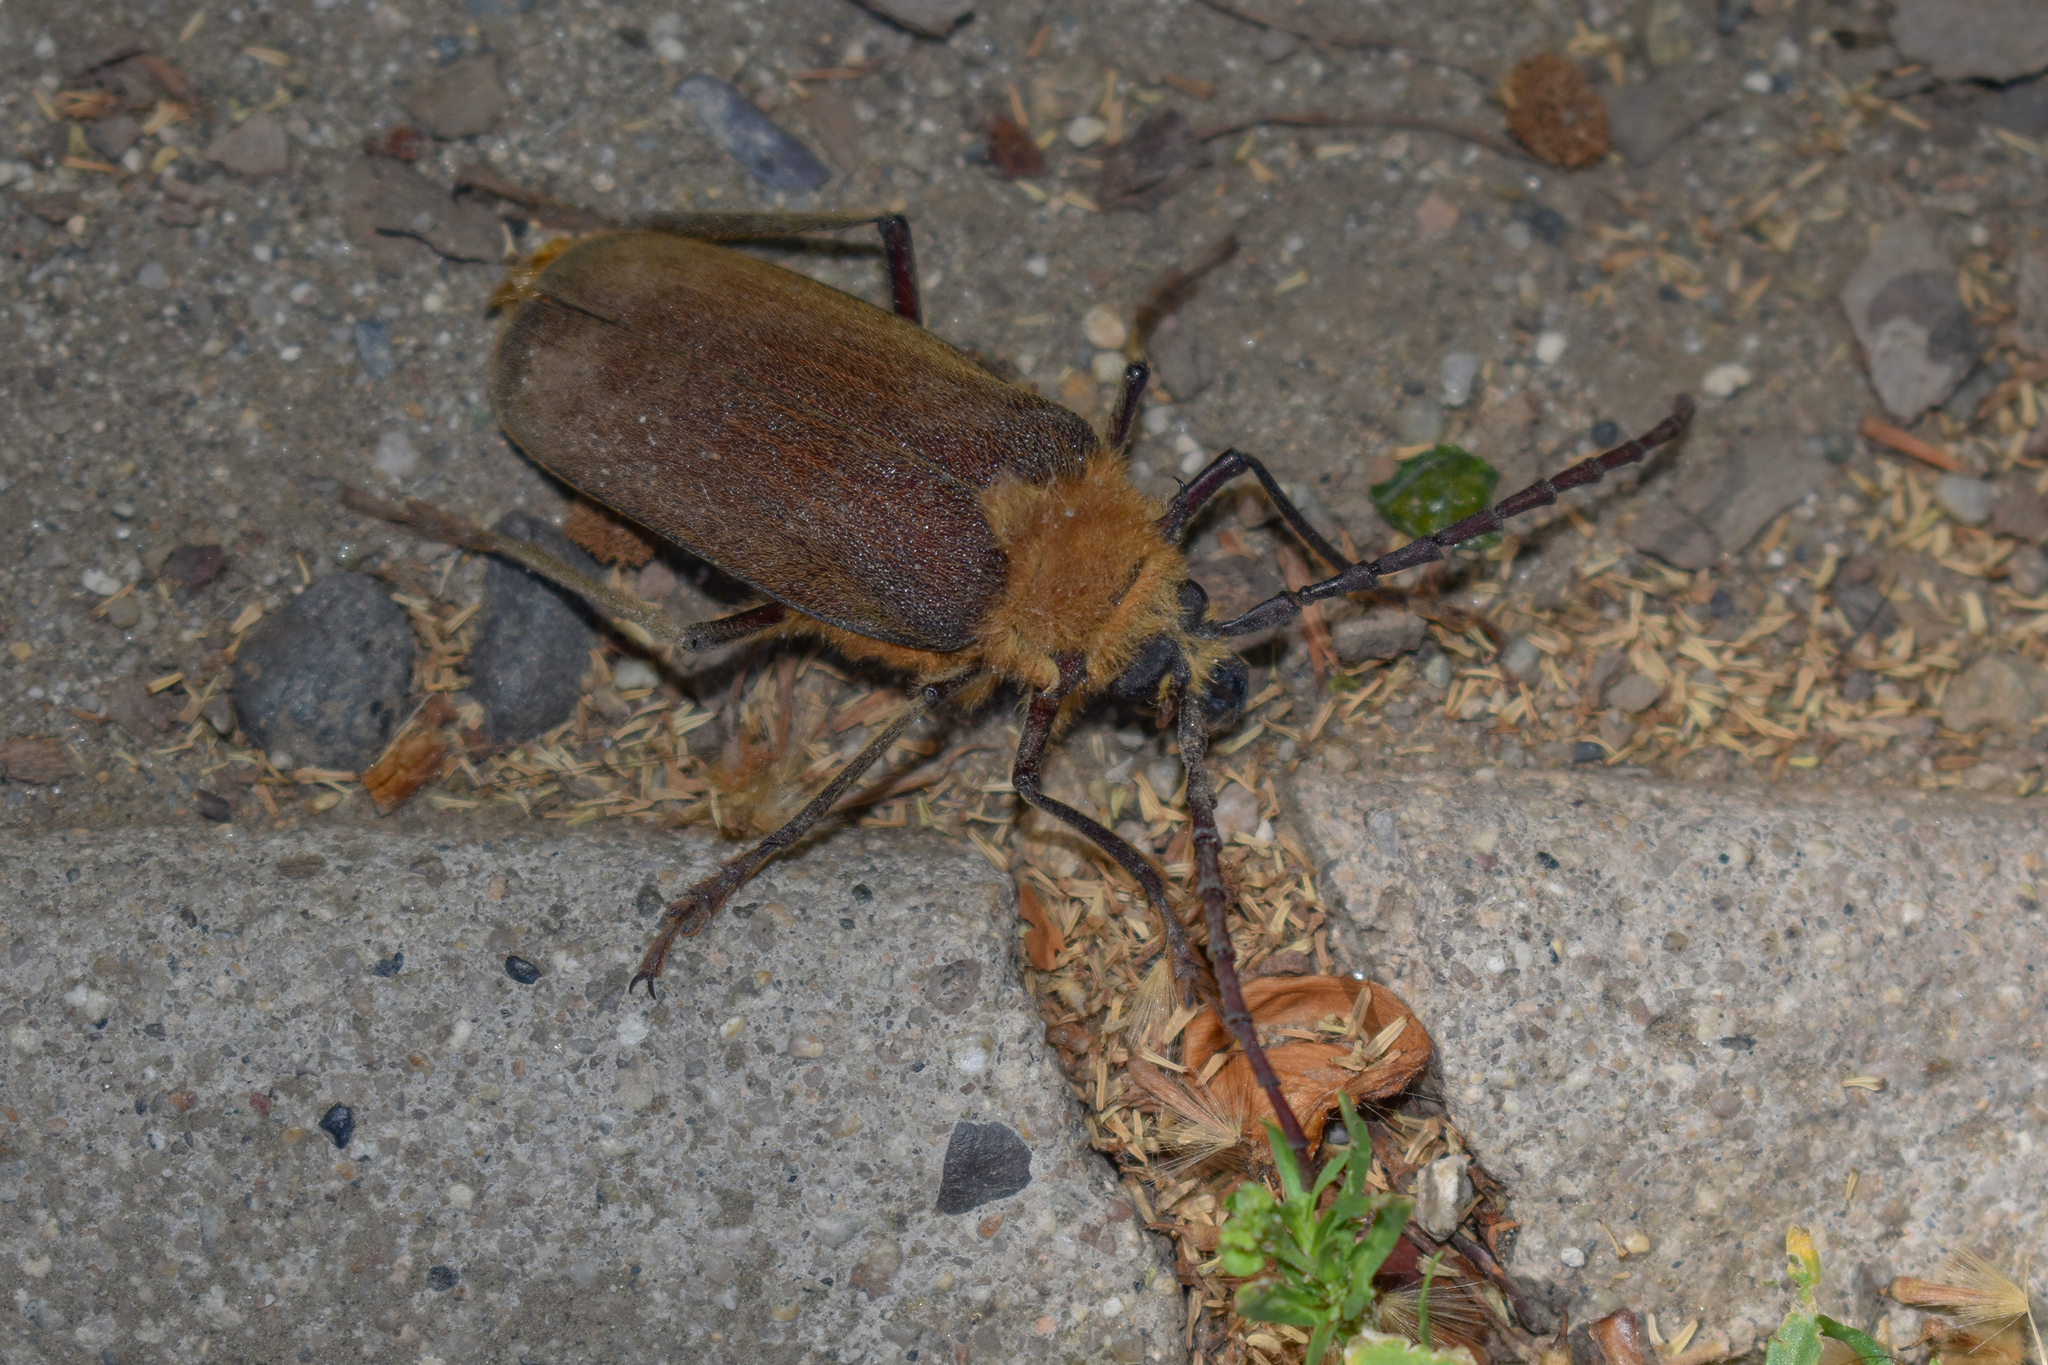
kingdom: Animalia
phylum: Arthropoda
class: Insecta
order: Coleoptera
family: Cerambycidae
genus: Acanthinodera
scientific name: Acanthinodera cumingii
